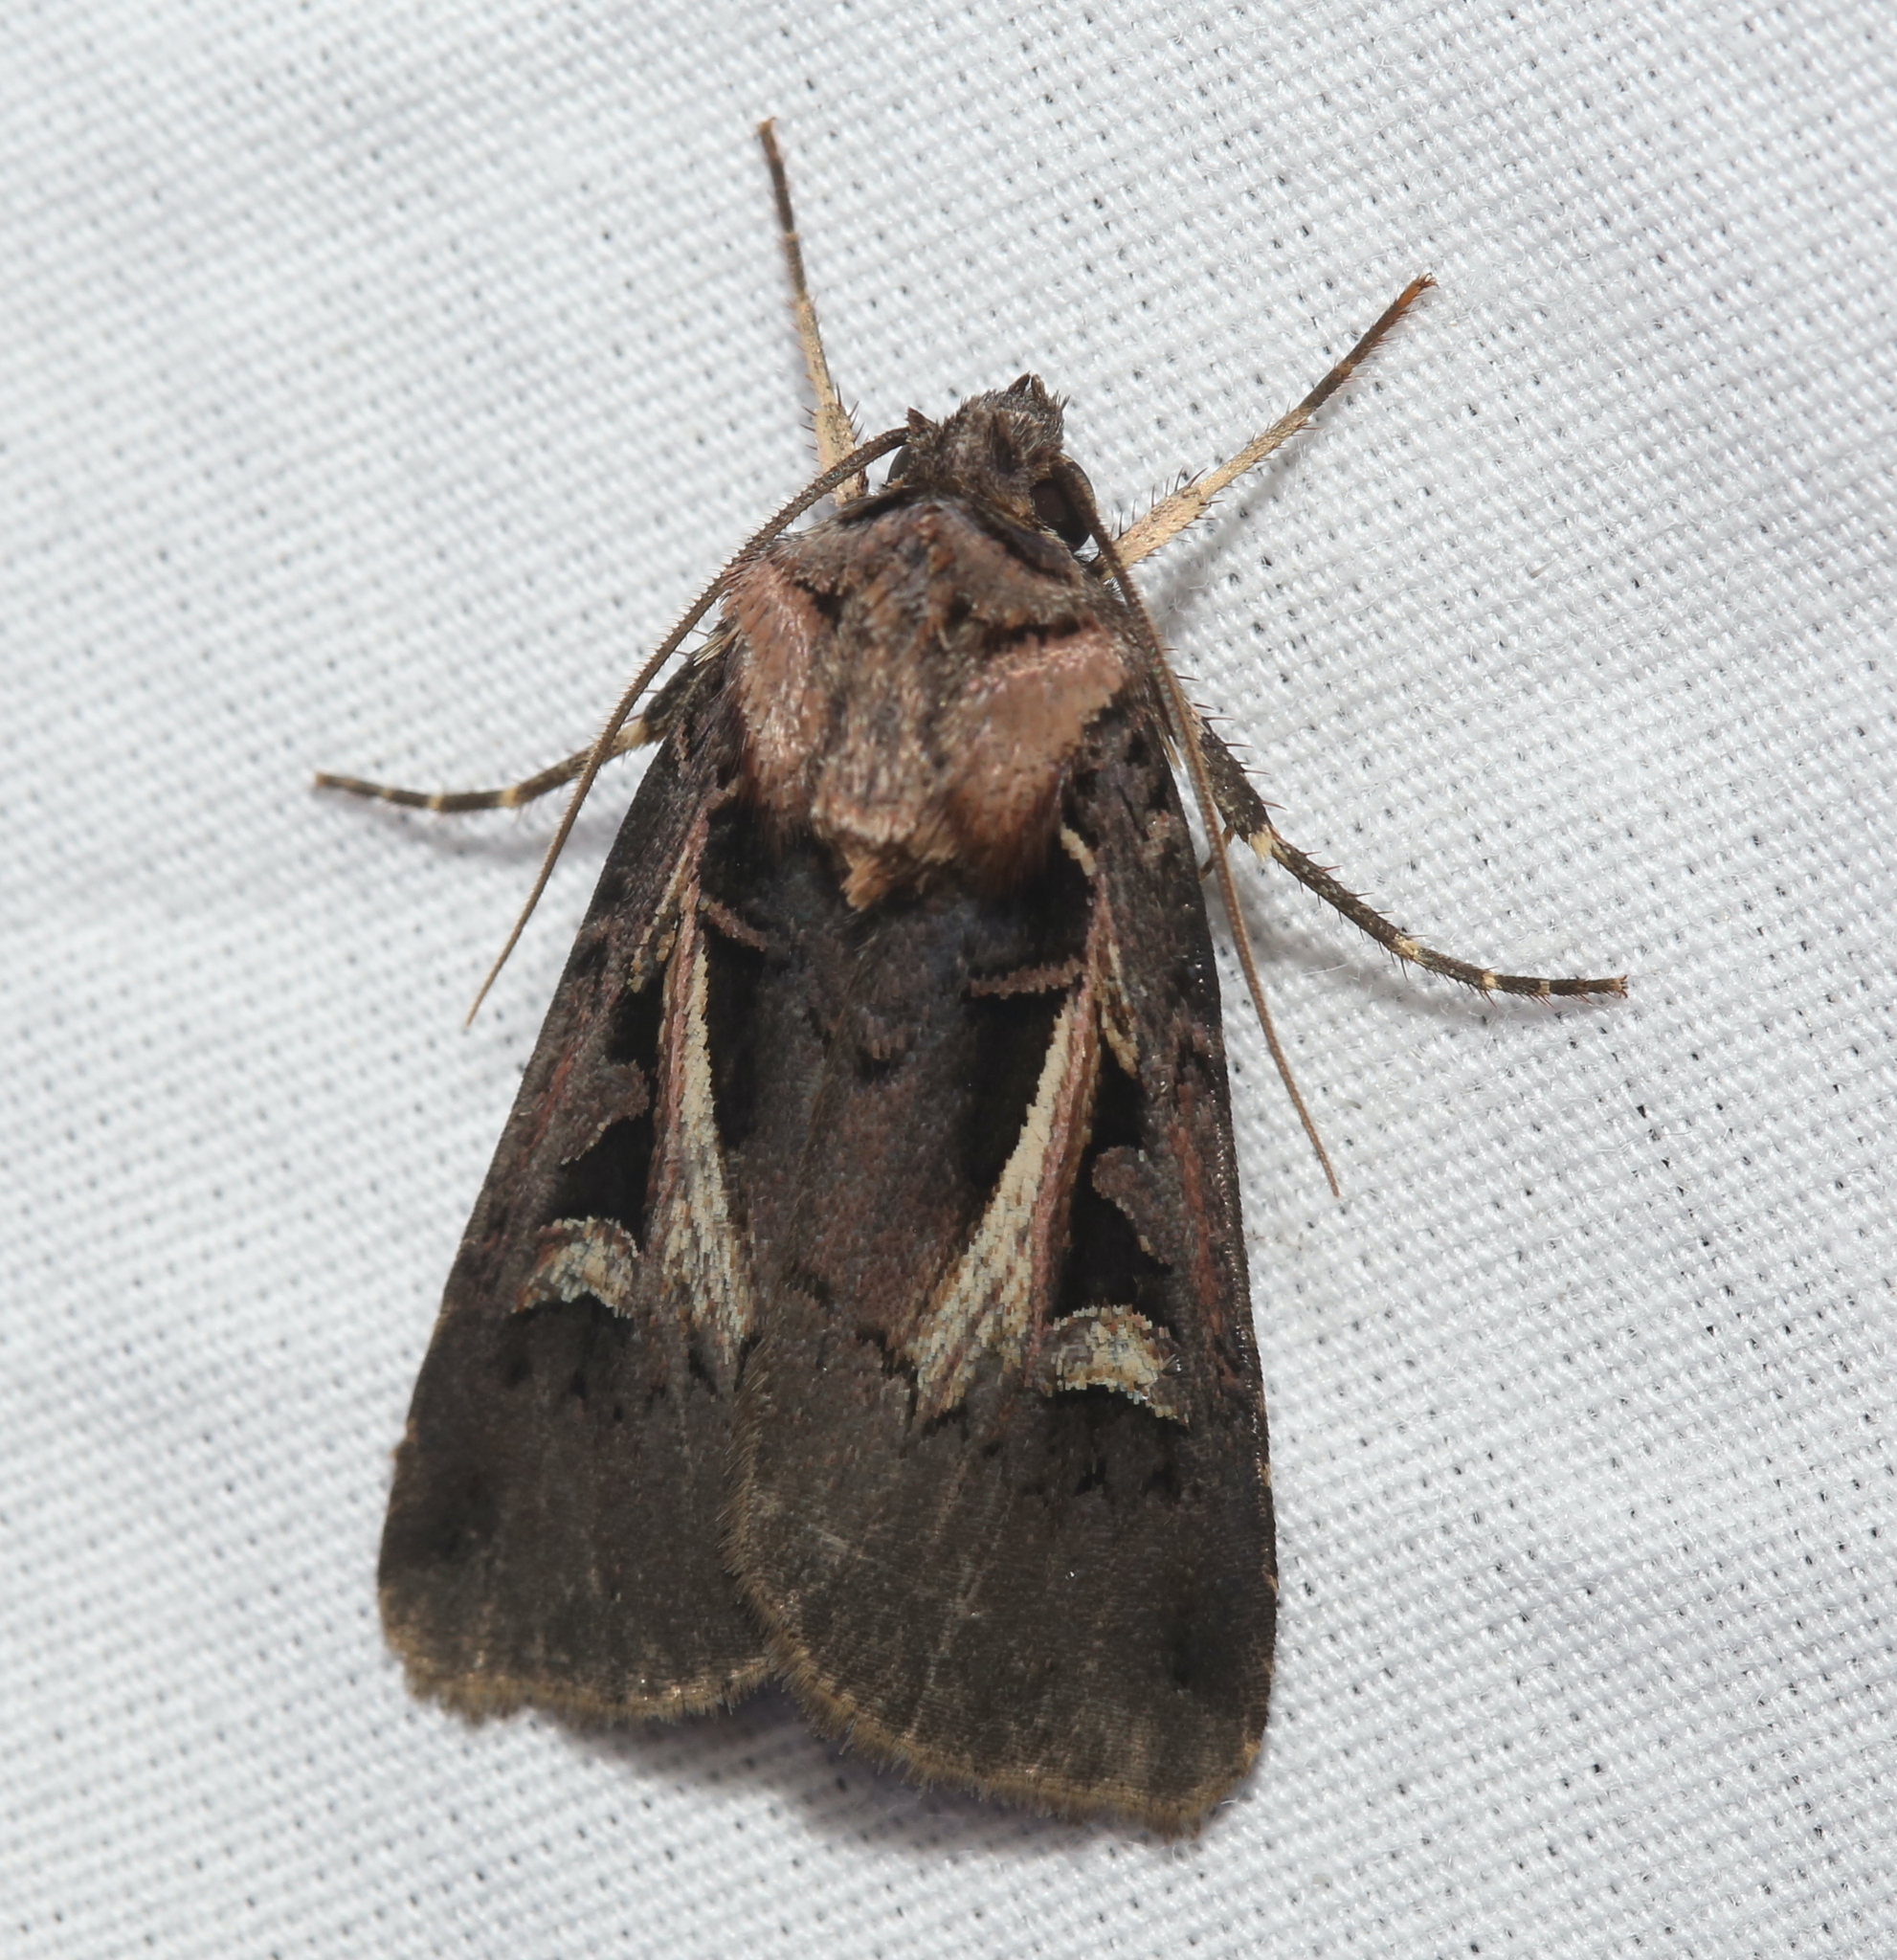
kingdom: Animalia
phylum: Arthropoda
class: Insecta
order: Lepidoptera
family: Noctuidae
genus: Feltia
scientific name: Feltia herilis
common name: Master's dart
